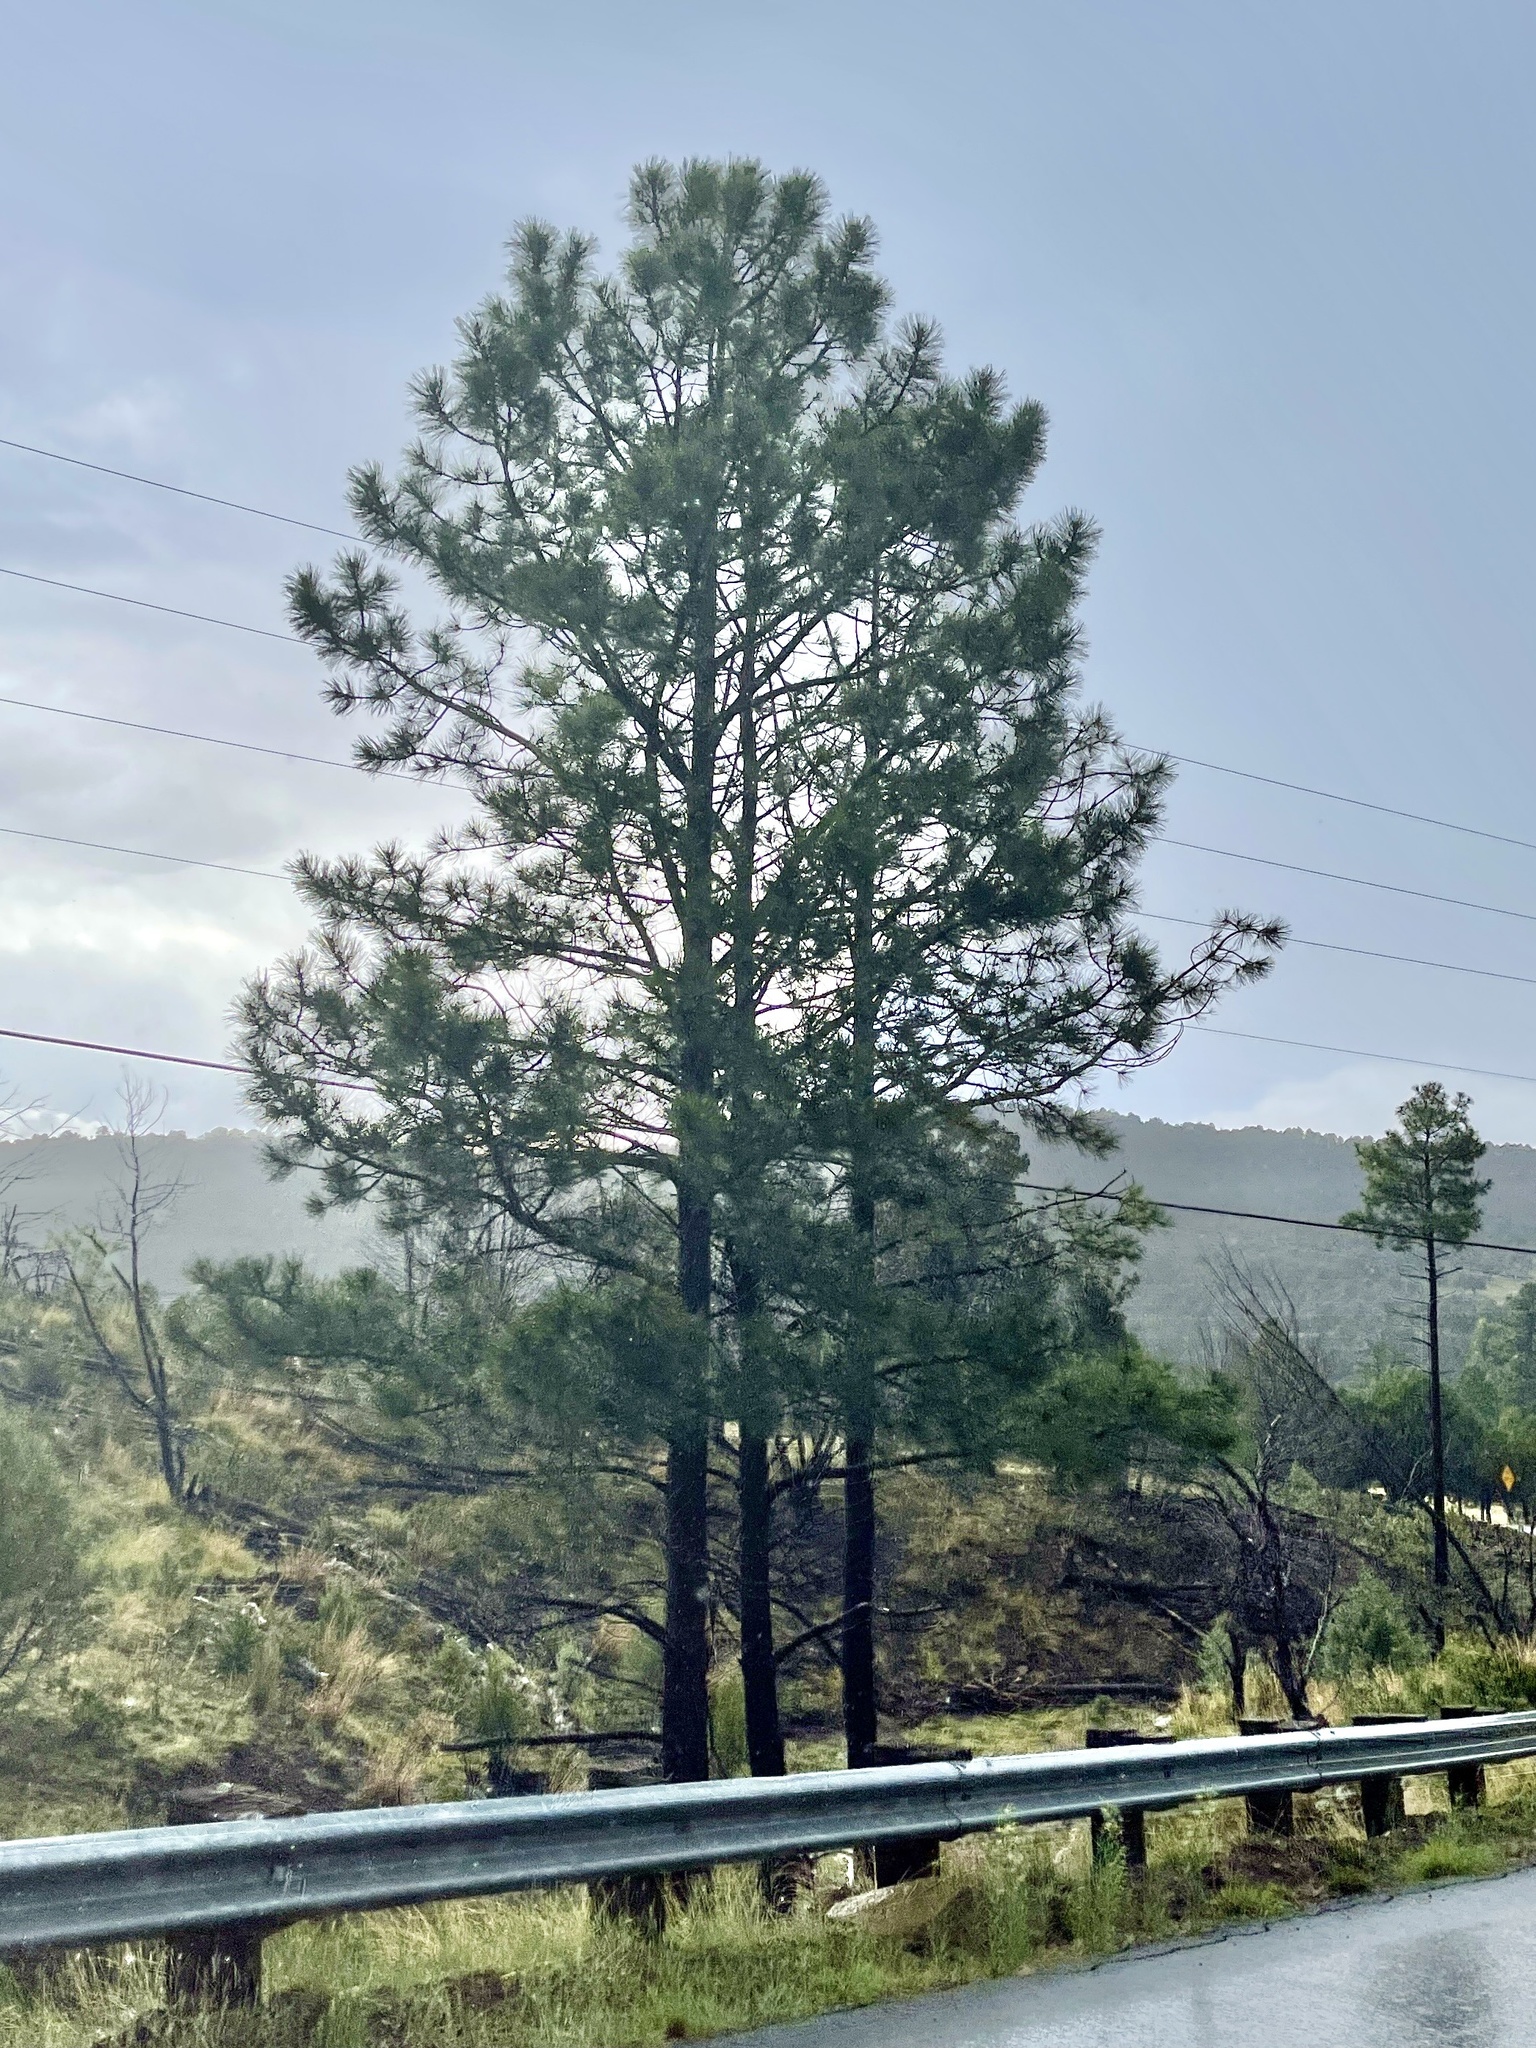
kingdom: Plantae
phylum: Tracheophyta
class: Pinopsida
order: Pinales
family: Pinaceae
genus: Pinus
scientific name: Pinus ponderosa
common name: Western yellow-pine
